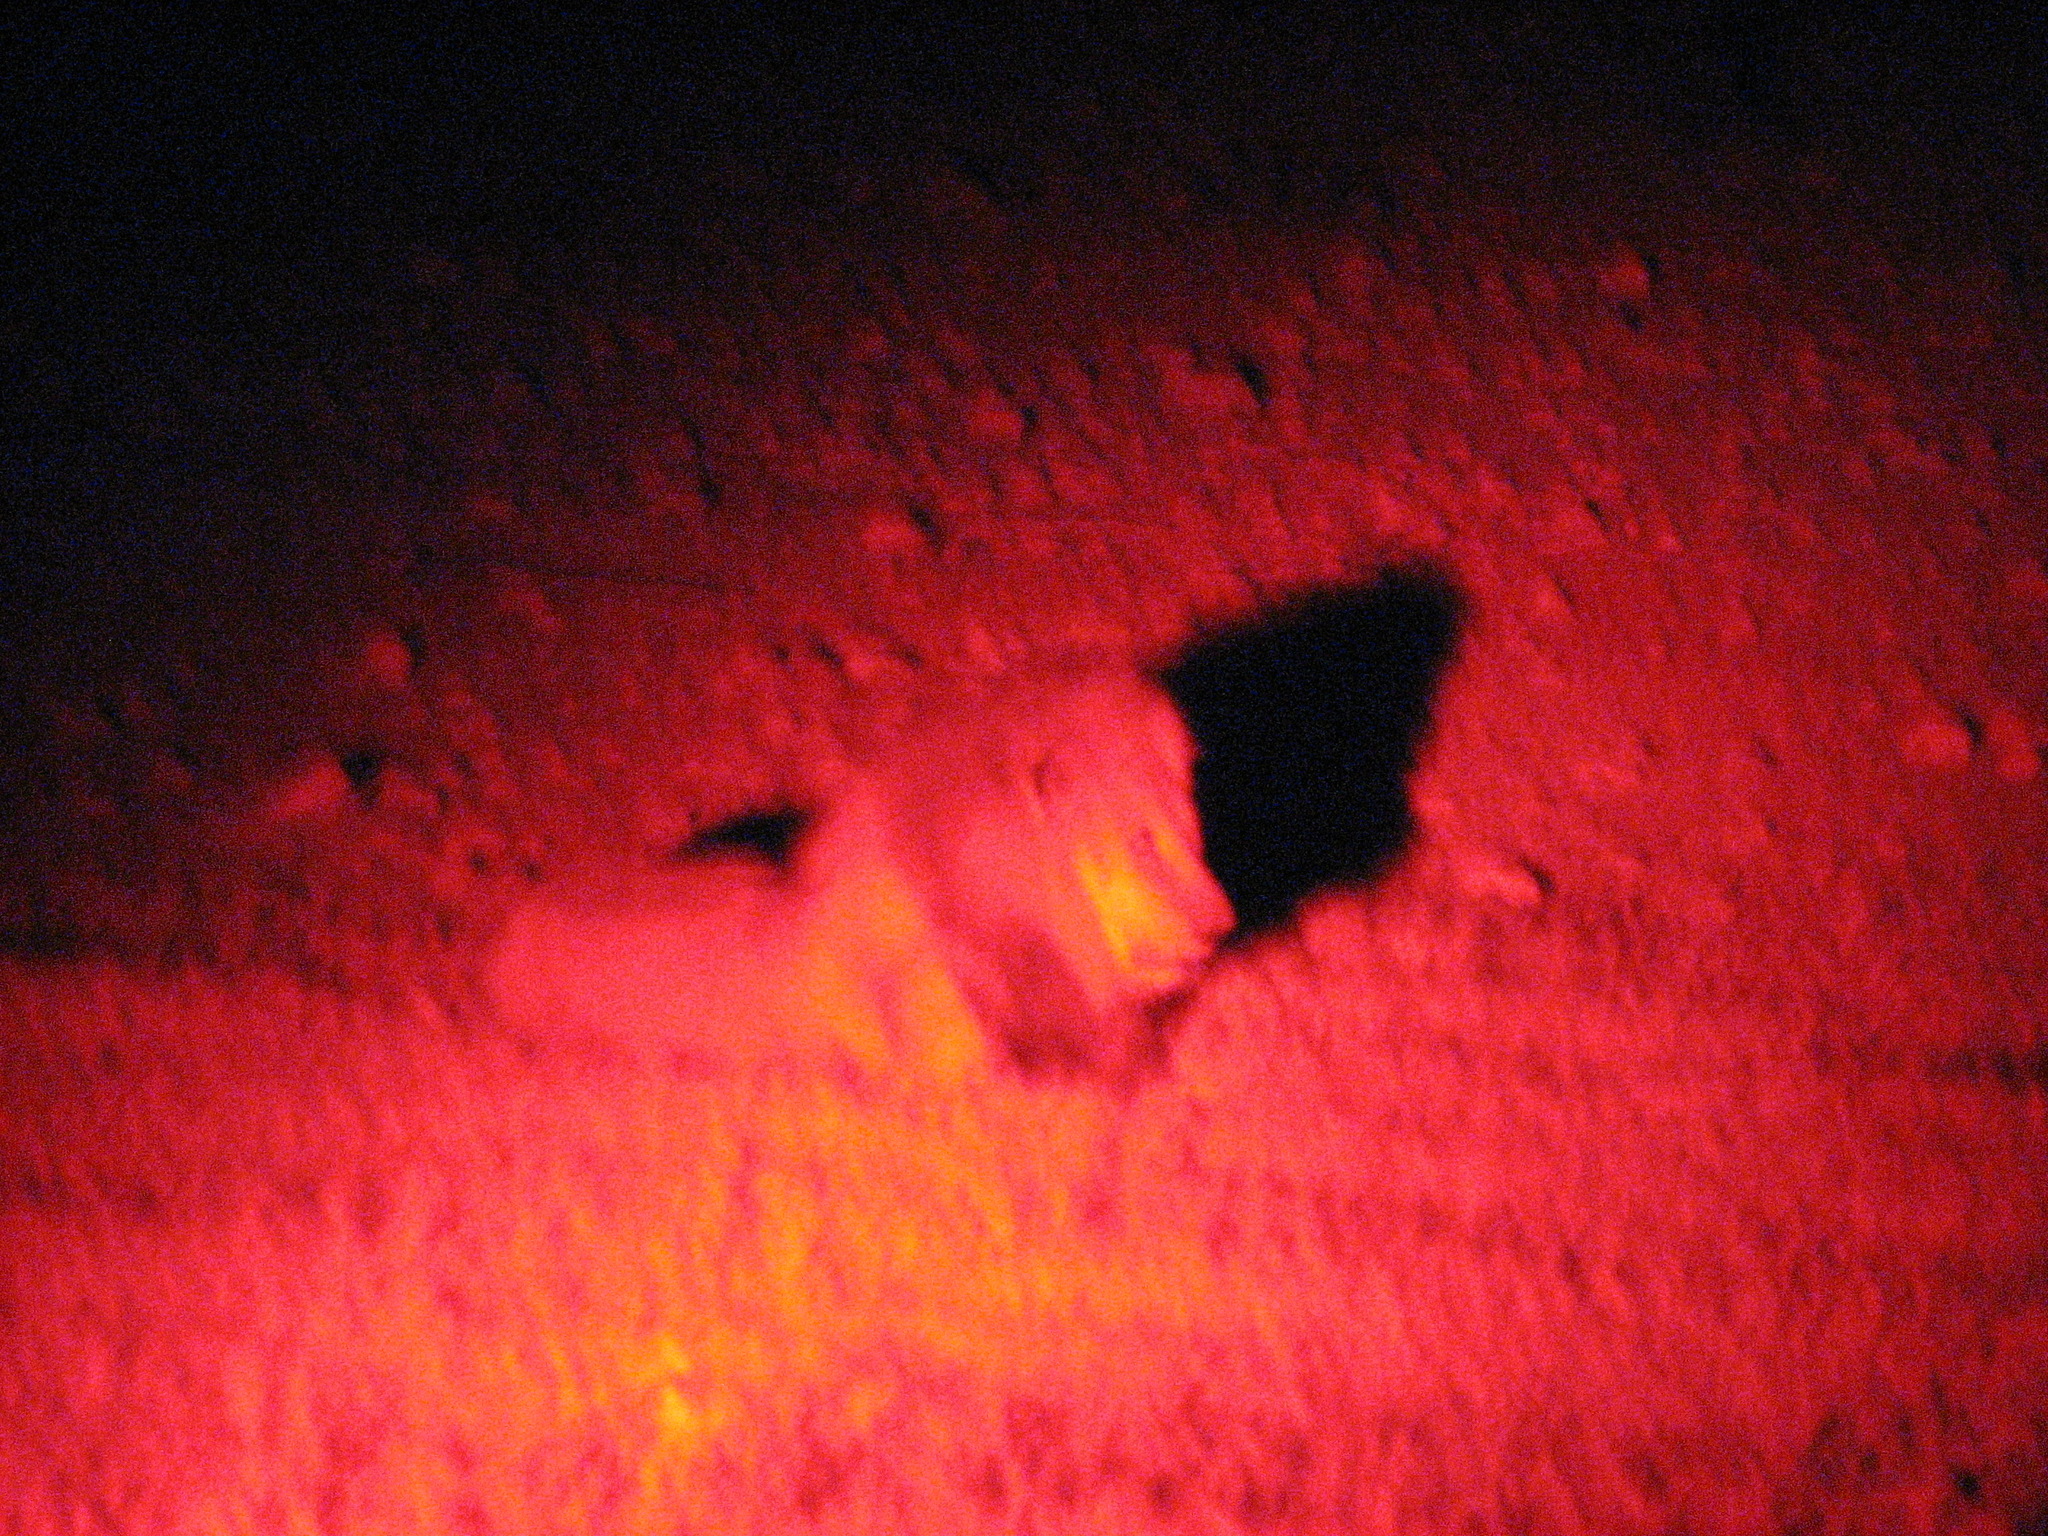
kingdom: Animalia
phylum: Chordata
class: Mammalia
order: Carnivora
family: Felidae
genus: Panthera
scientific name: Panthera leo
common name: Lion
